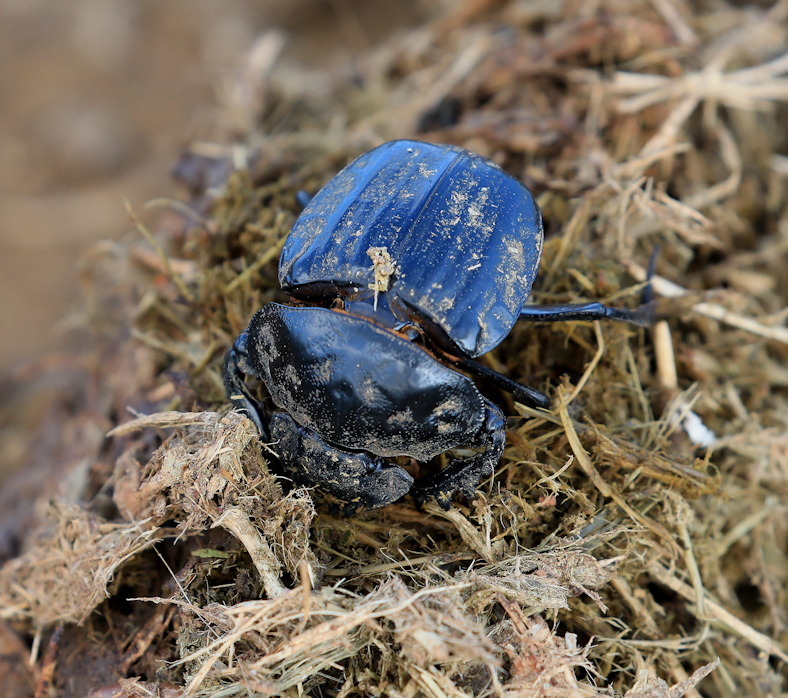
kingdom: Animalia
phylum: Arthropoda
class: Insecta
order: Coleoptera
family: Scarabaeidae
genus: Pachylomera
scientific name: Pachylomera femoralis
